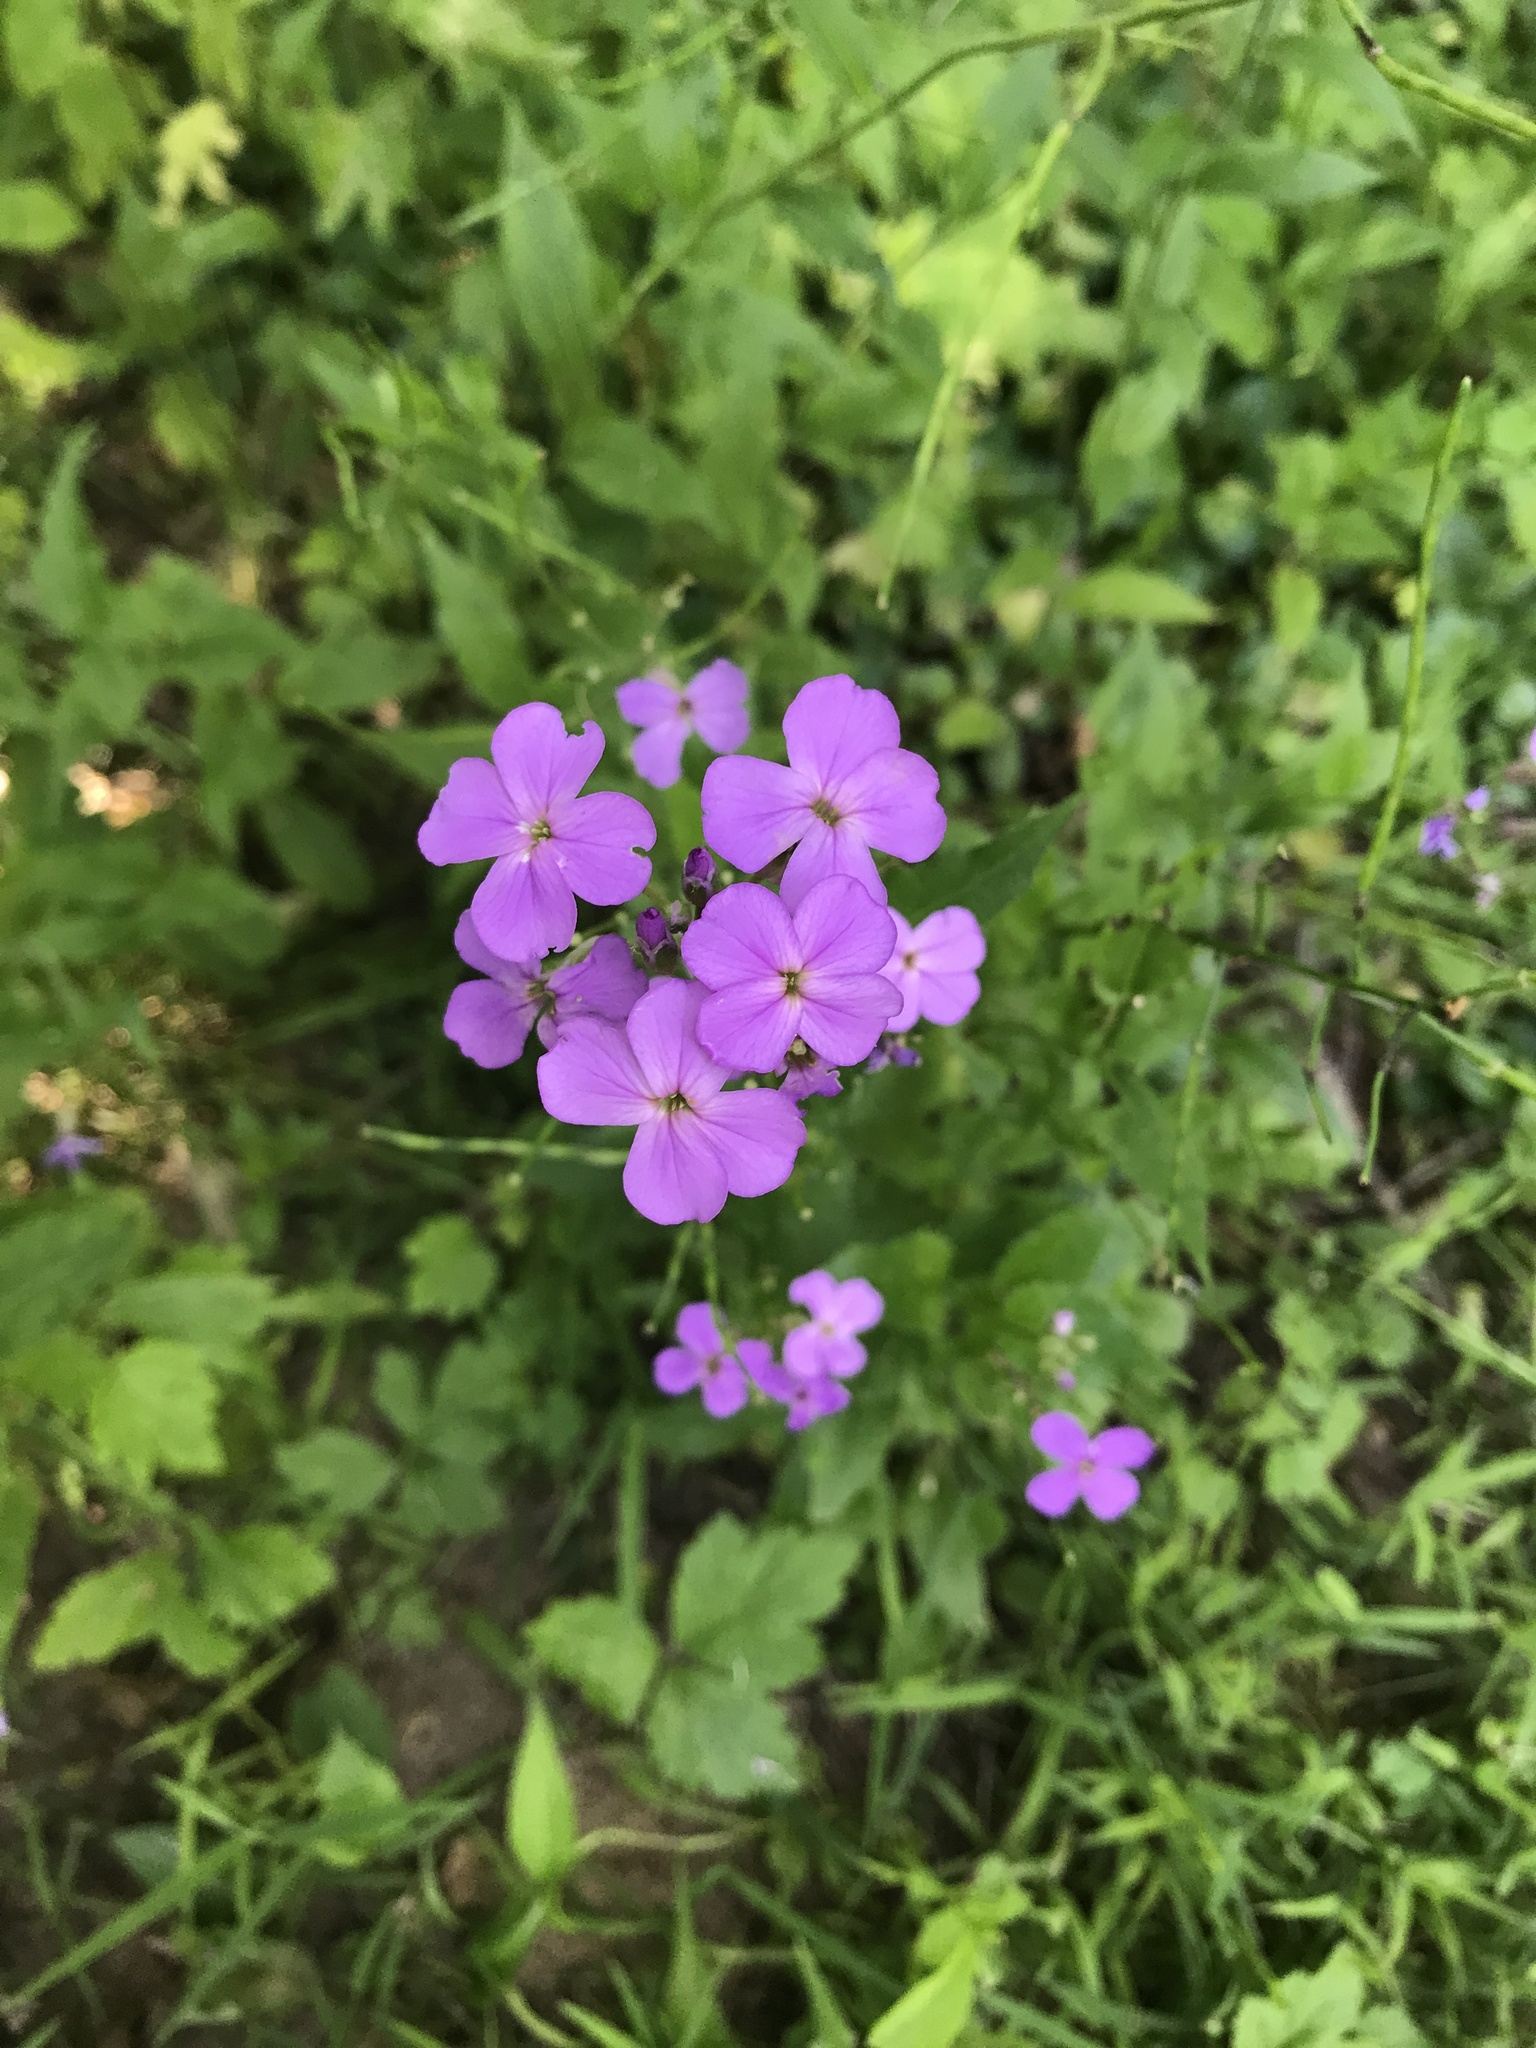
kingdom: Plantae
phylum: Tracheophyta
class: Magnoliopsida
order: Brassicales
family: Brassicaceae
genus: Hesperis
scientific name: Hesperis matronalis
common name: Dame's-violet
